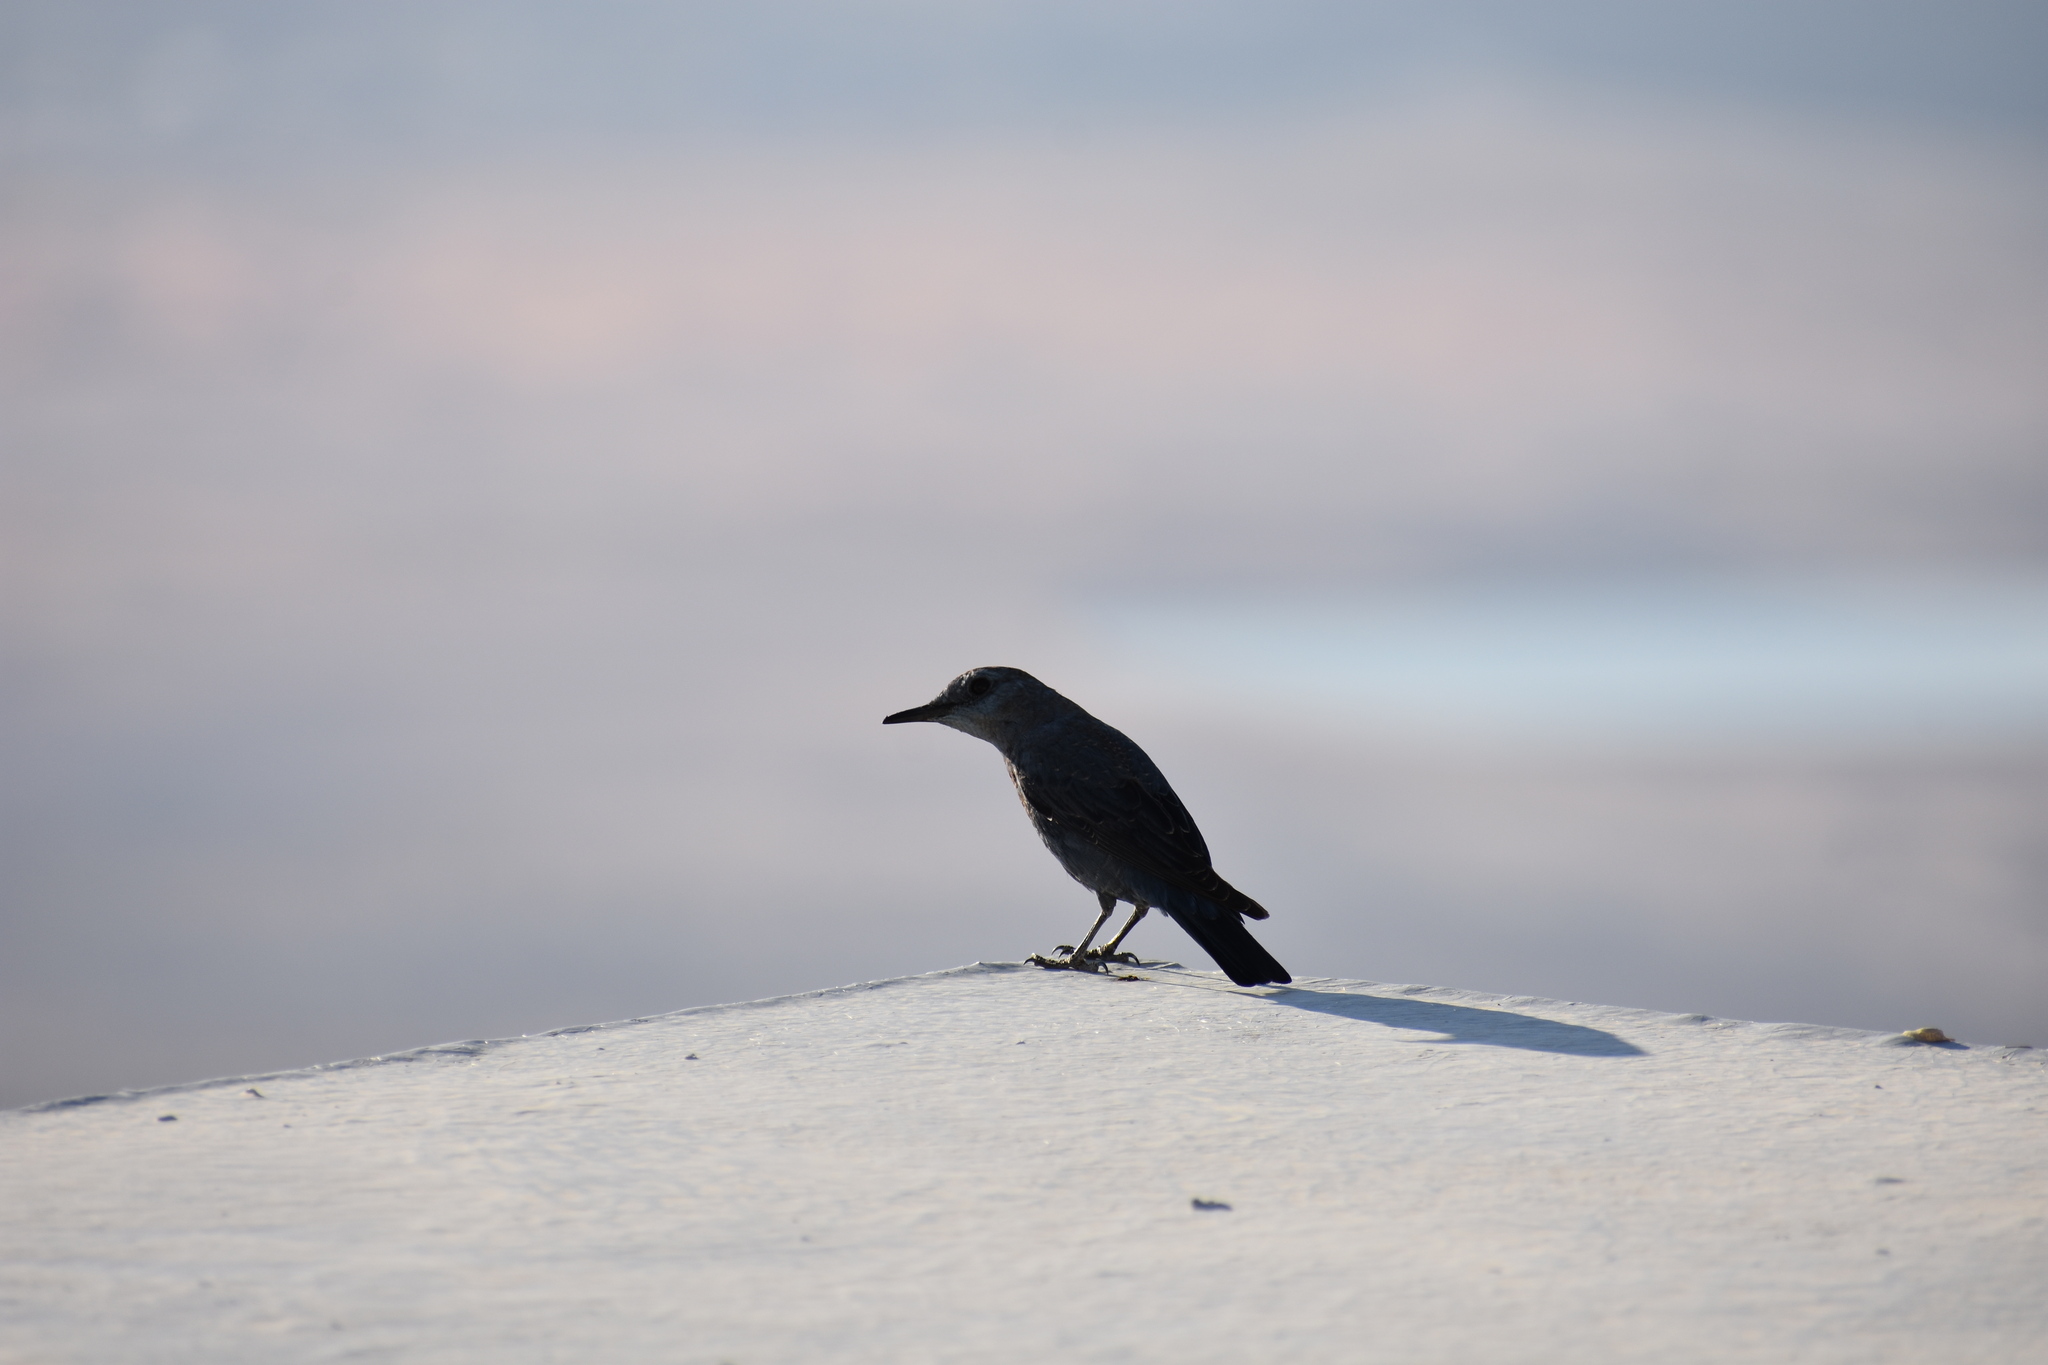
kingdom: Animalia
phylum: Chordata
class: Aves
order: Passeriformes
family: Muscicapidae
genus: Monticola
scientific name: Monticola solitarius
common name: Blue rock thrush
